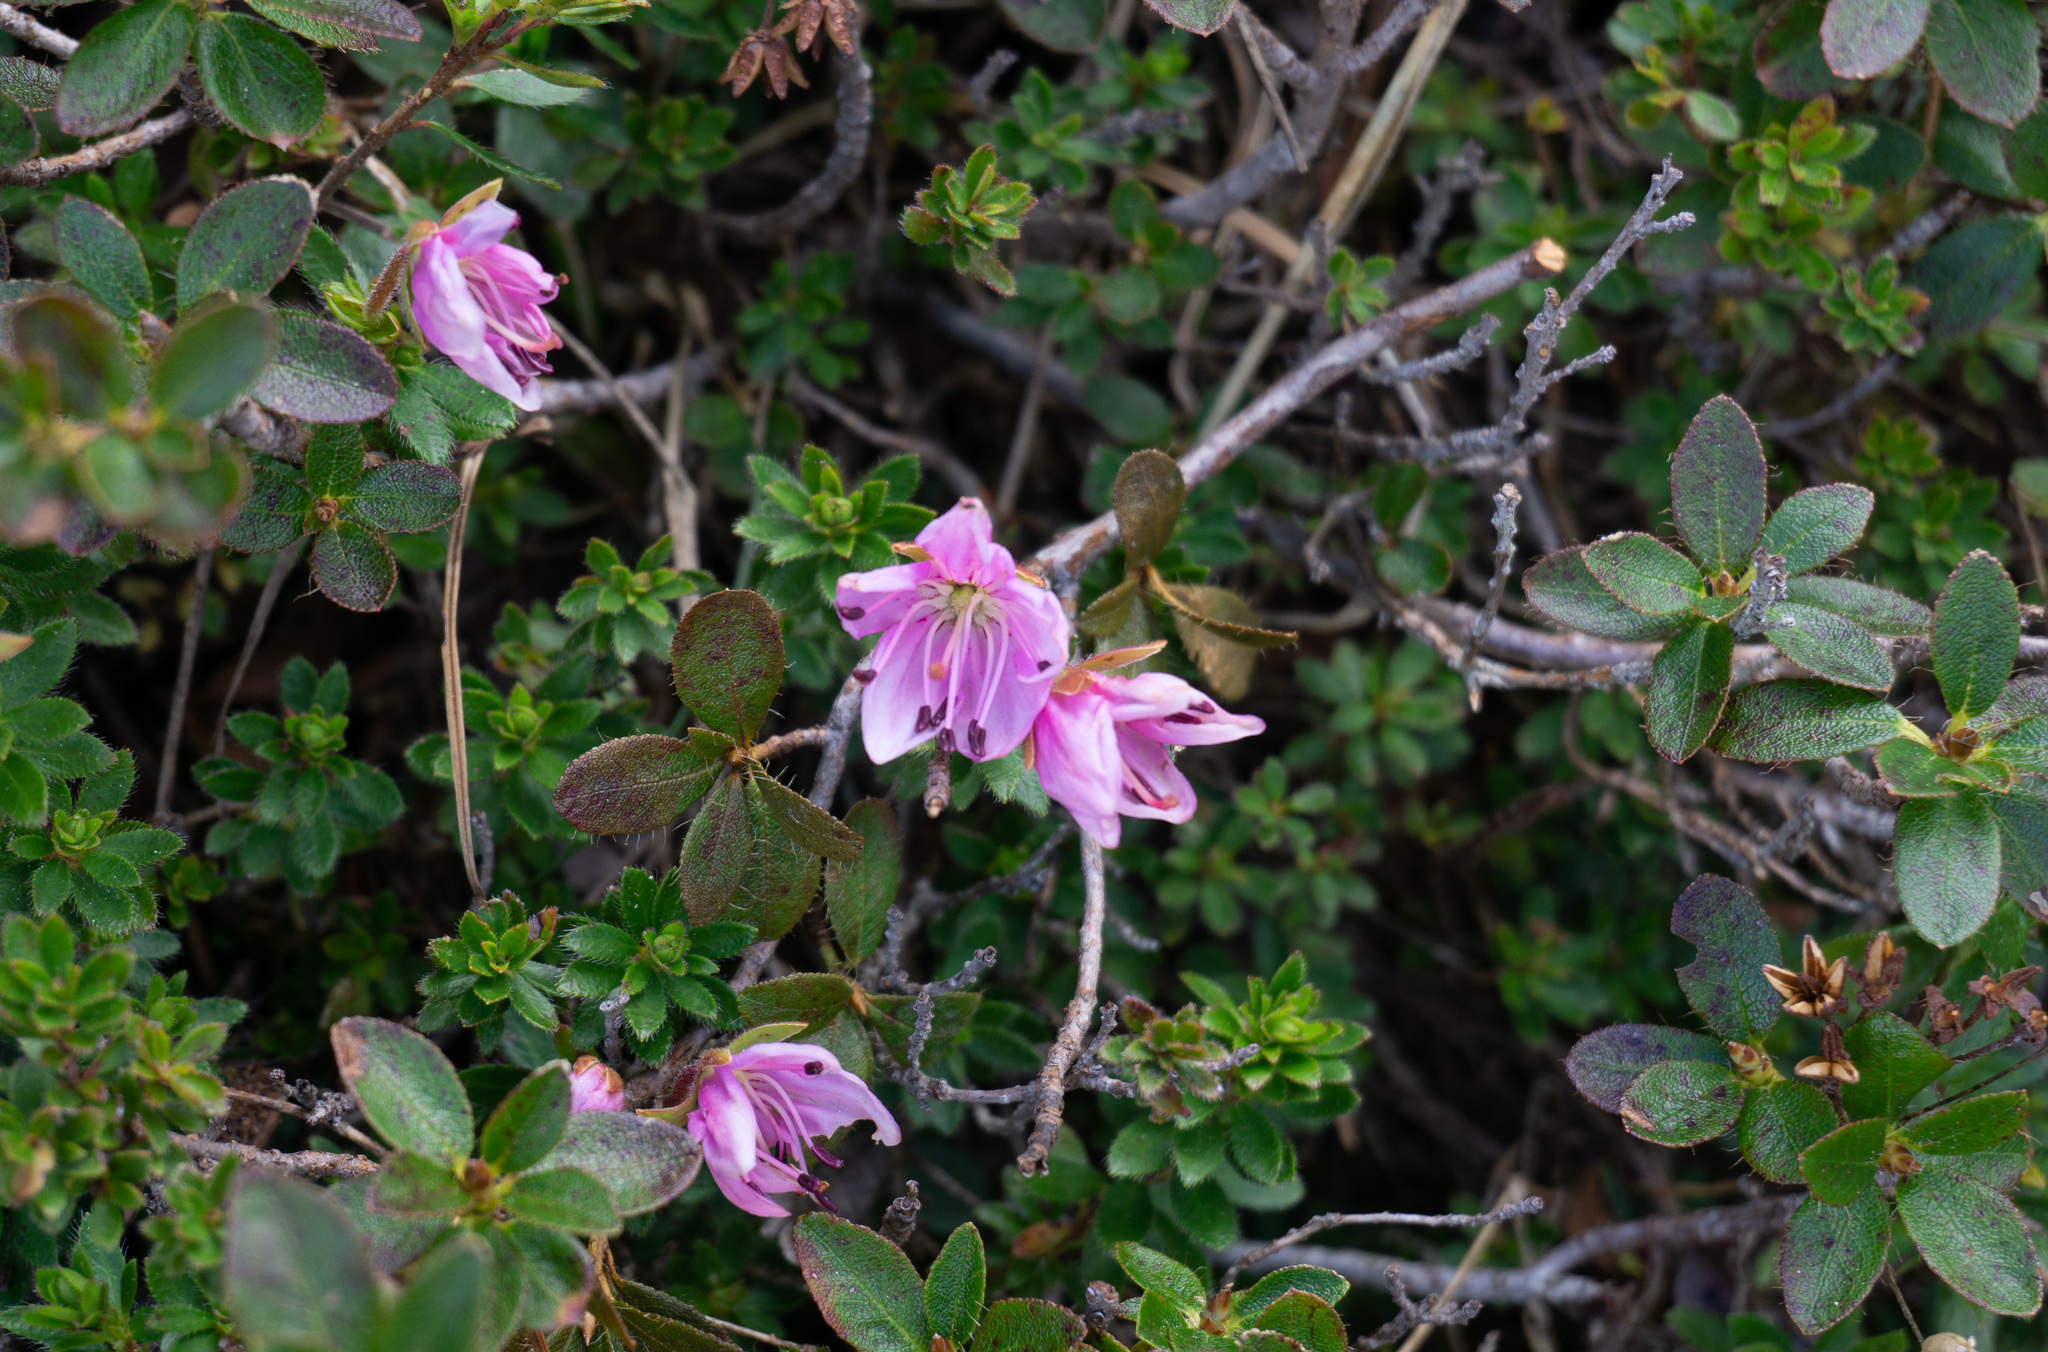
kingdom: Plantae
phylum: Tracheophyta
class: Magnoliopsida
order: Ericales
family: Ericaceae
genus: Rhodothamnus
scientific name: Rhodothamnus chamaecistus
